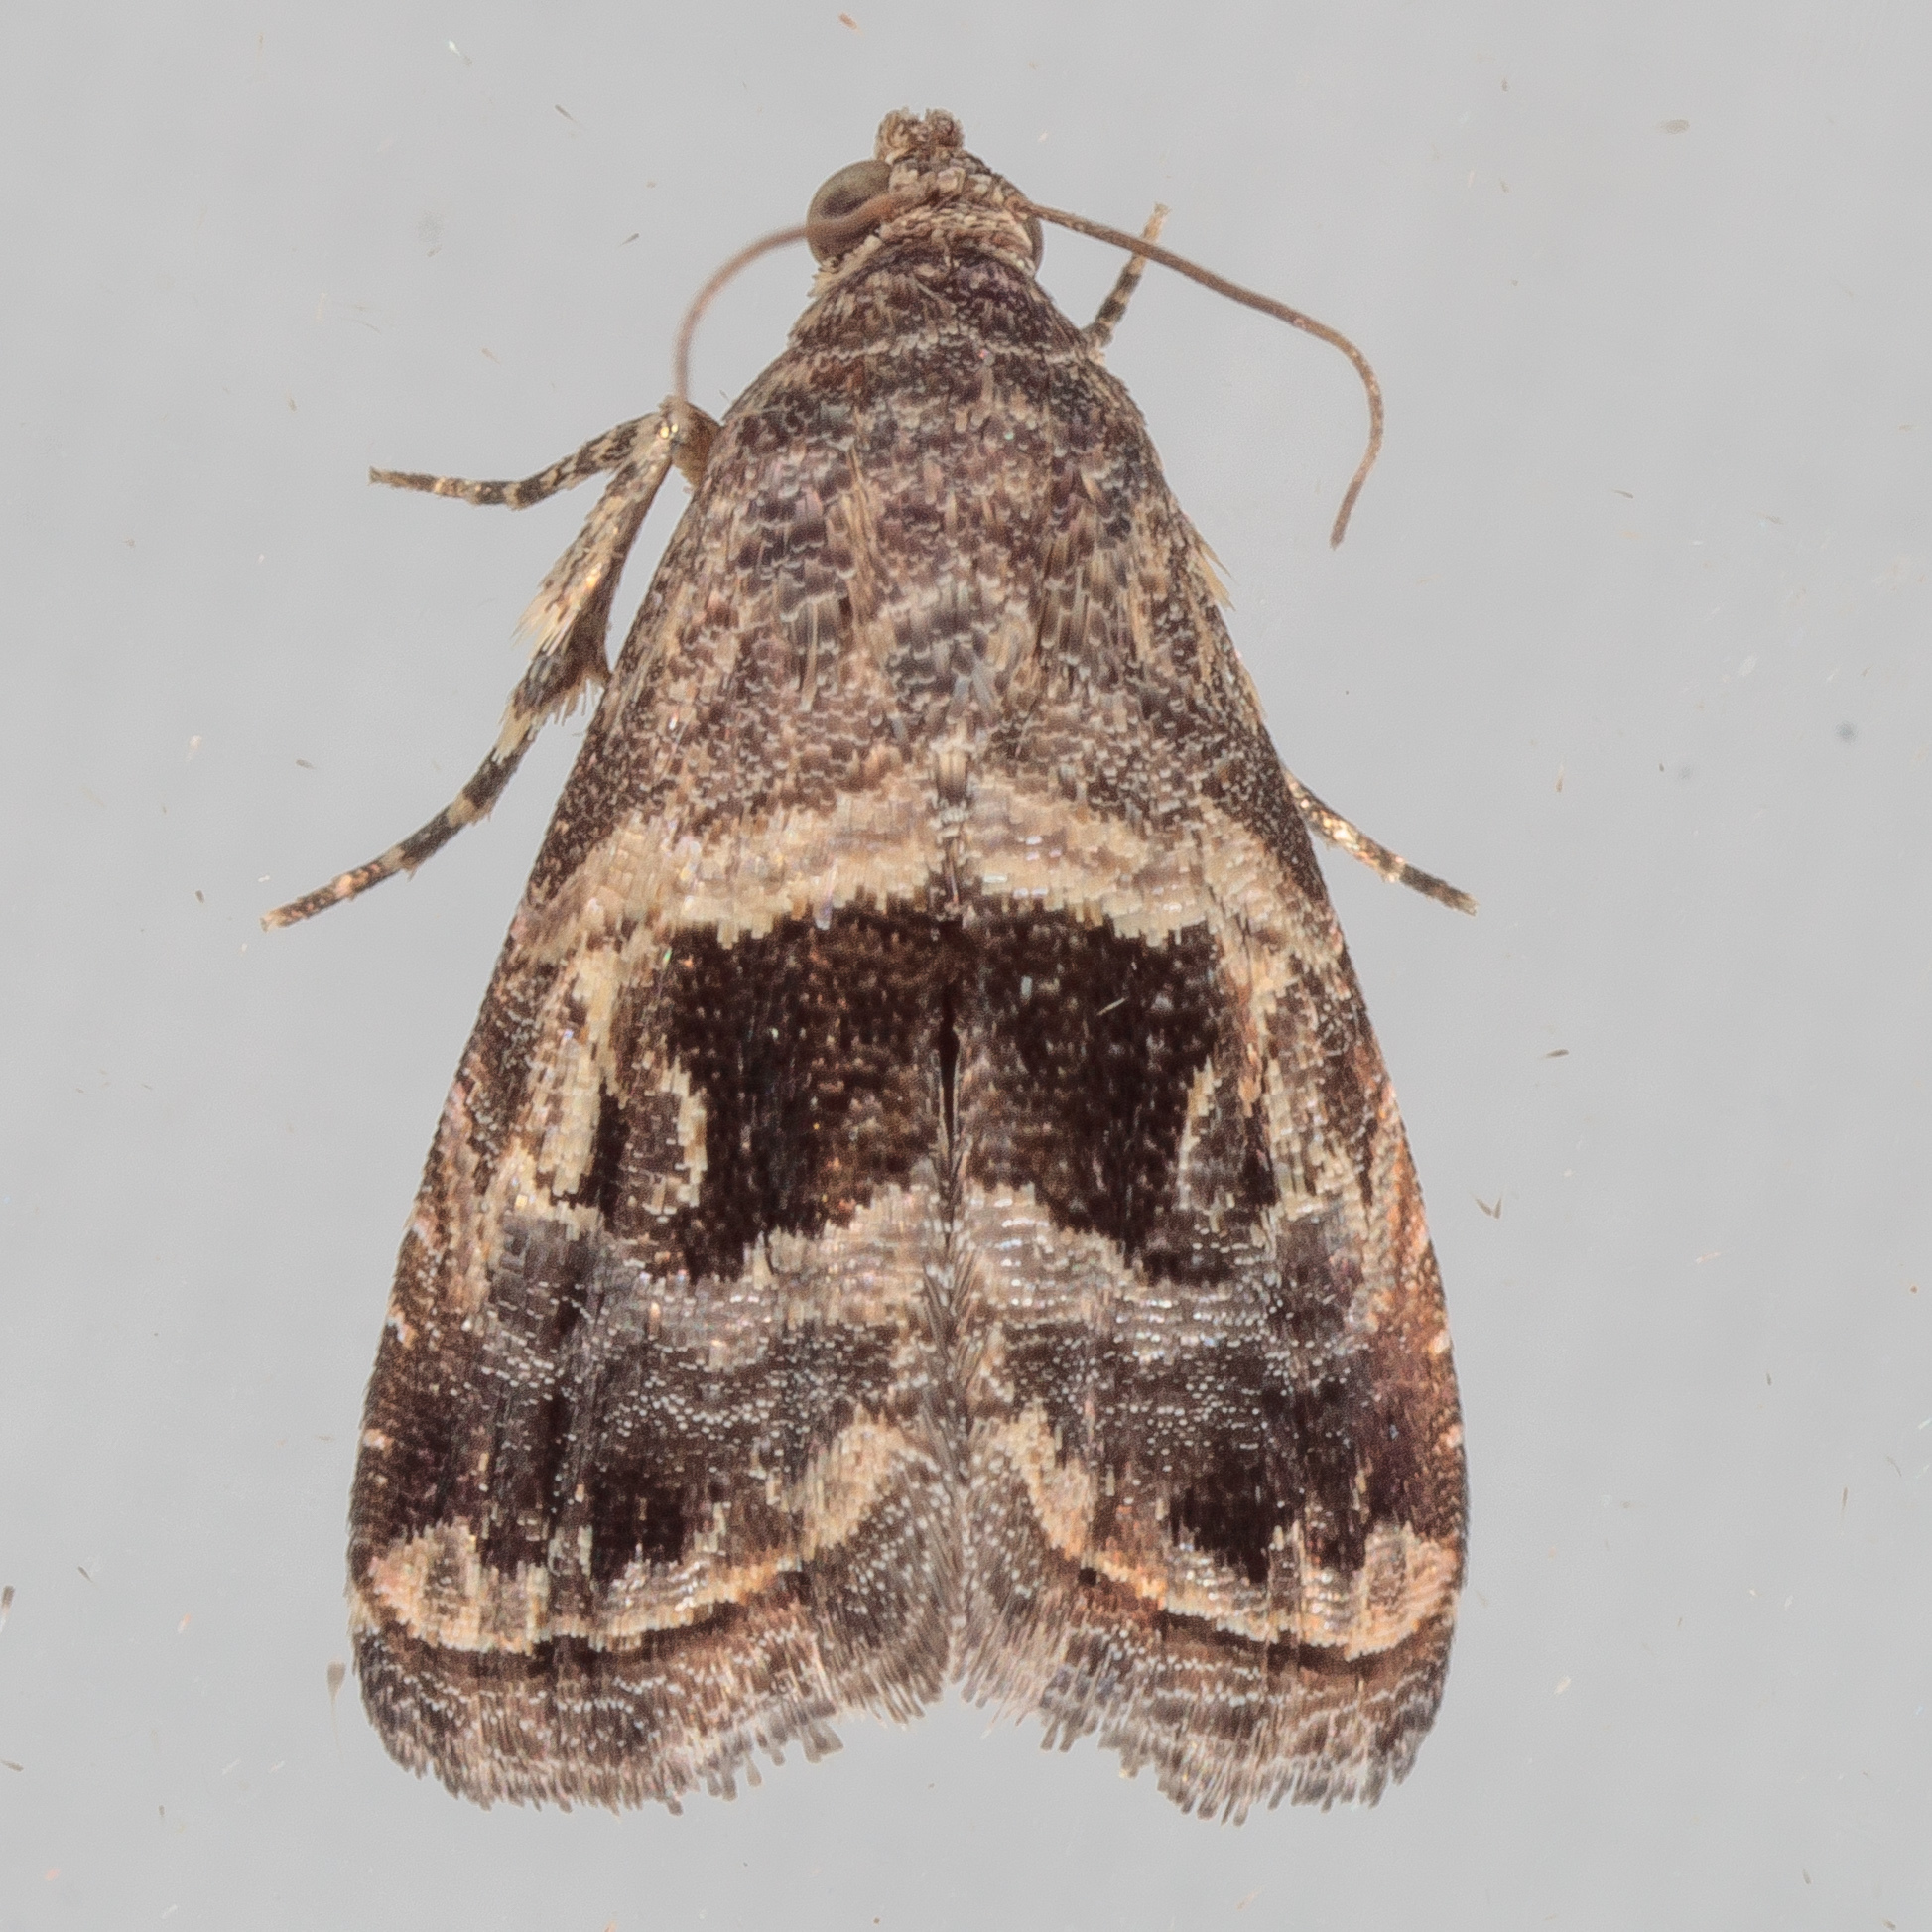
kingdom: Animalia
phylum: Arthropoda
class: Insecta
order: Lepidoptera
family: Noctuidae
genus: Tripudia
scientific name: Tripudia quadrifera
